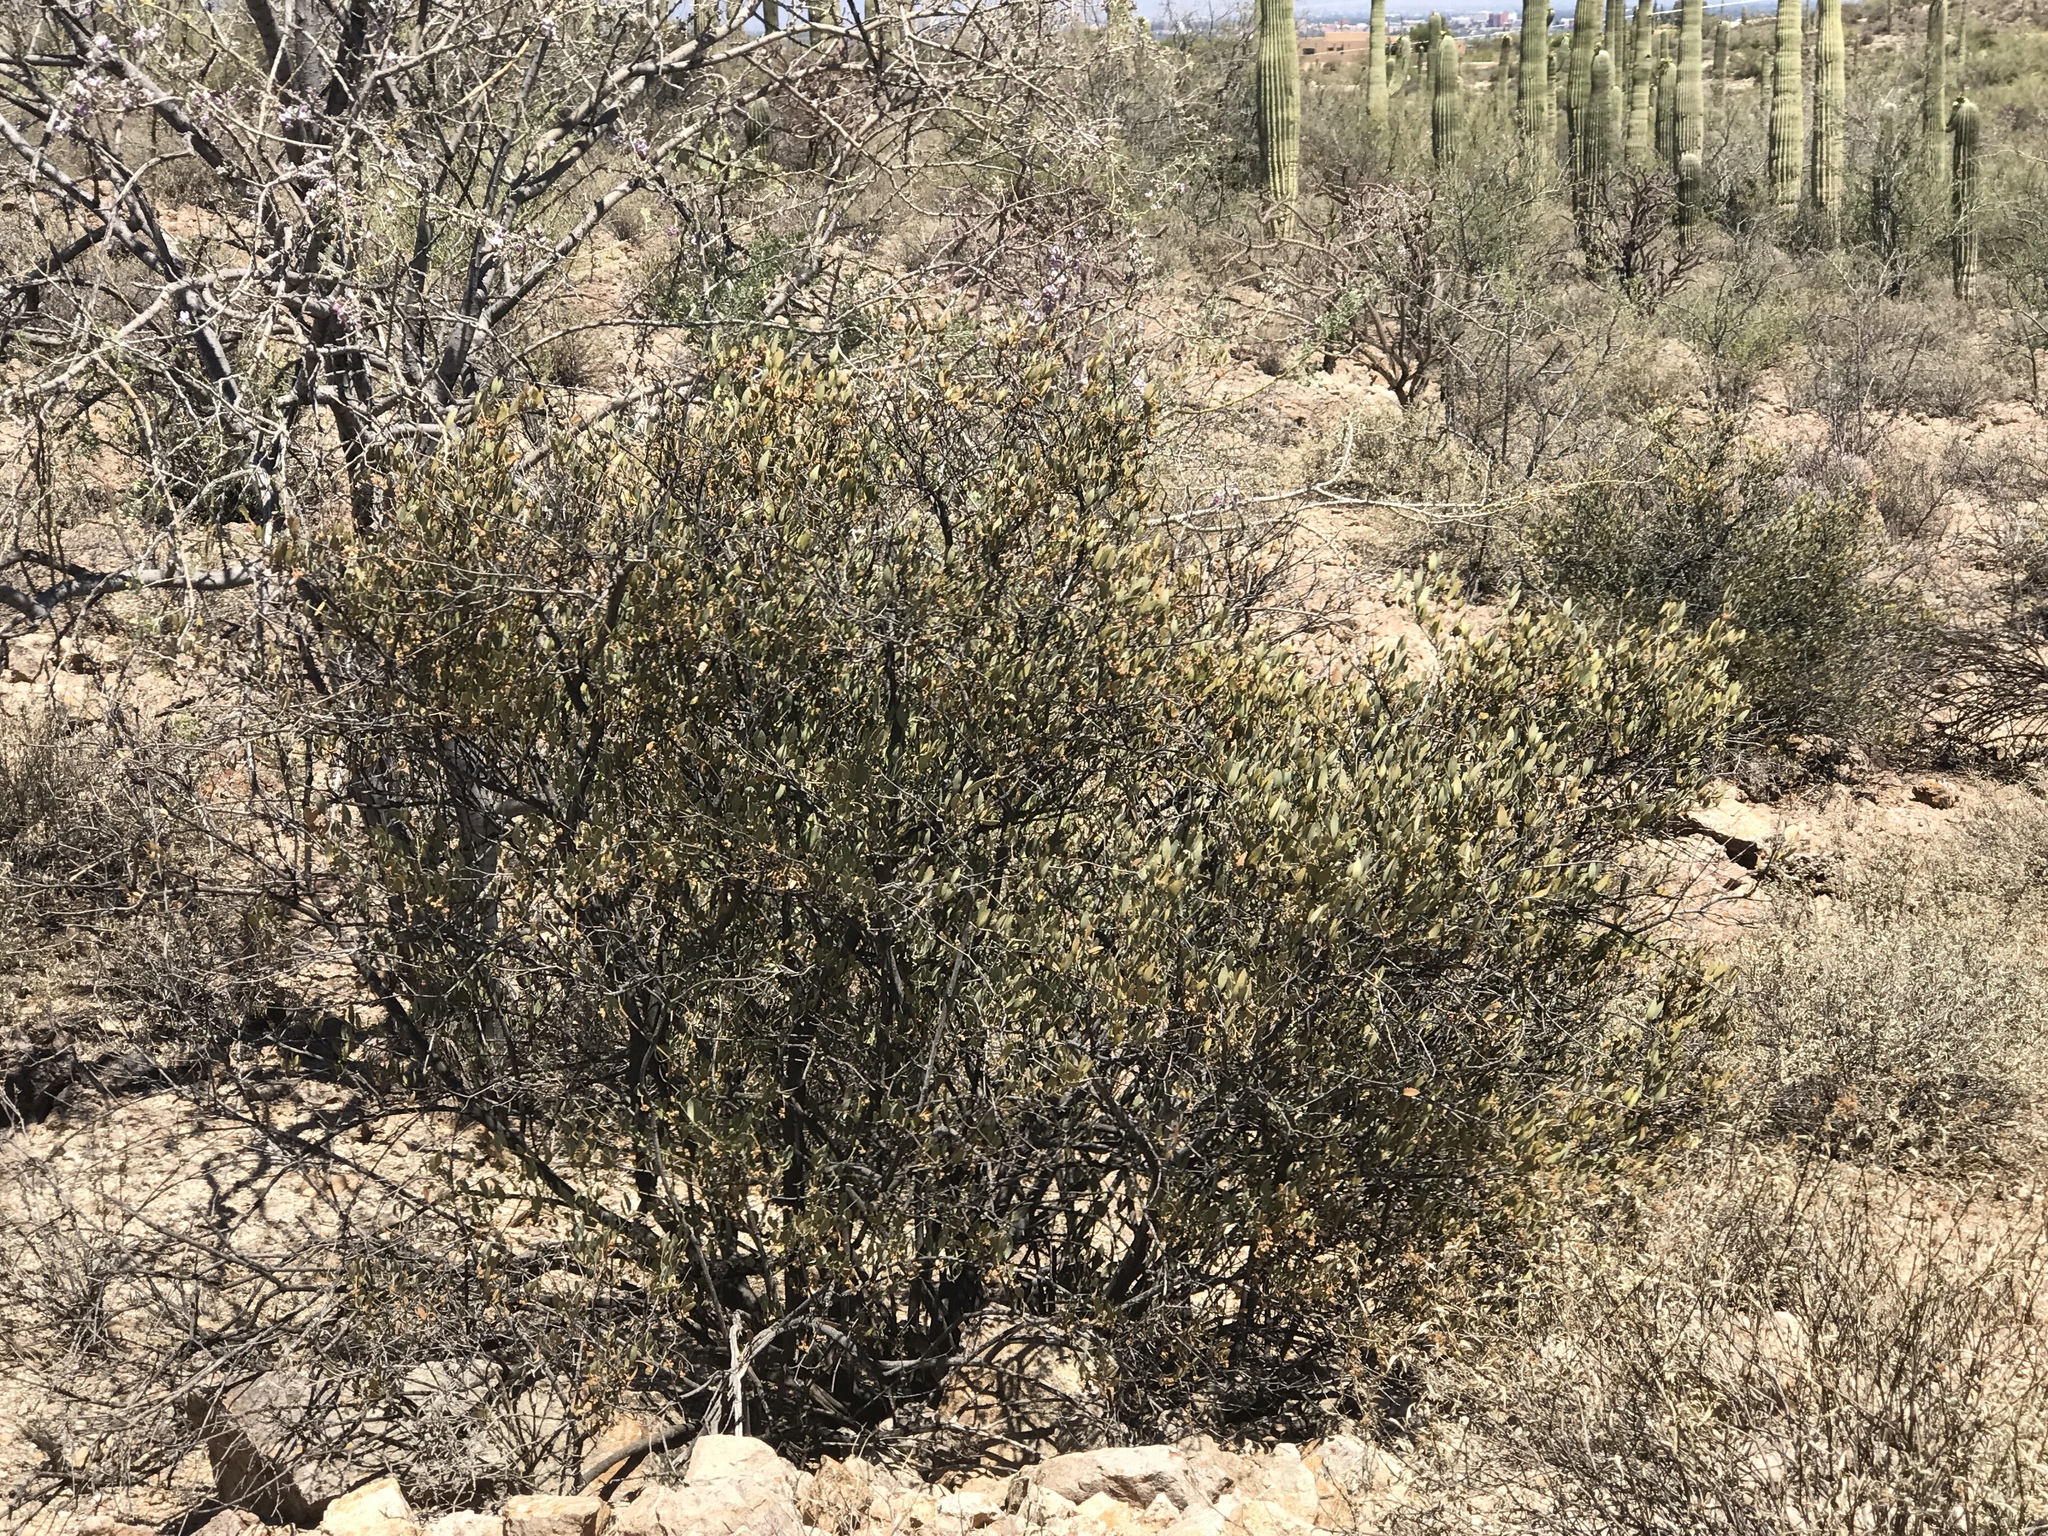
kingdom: Plantae
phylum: Tracheophyta
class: Magnoliopsida
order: Caryophyllales
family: Simmondsiaceae
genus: Simmondsia
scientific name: Simmondsia chinensis
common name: Jojoba
